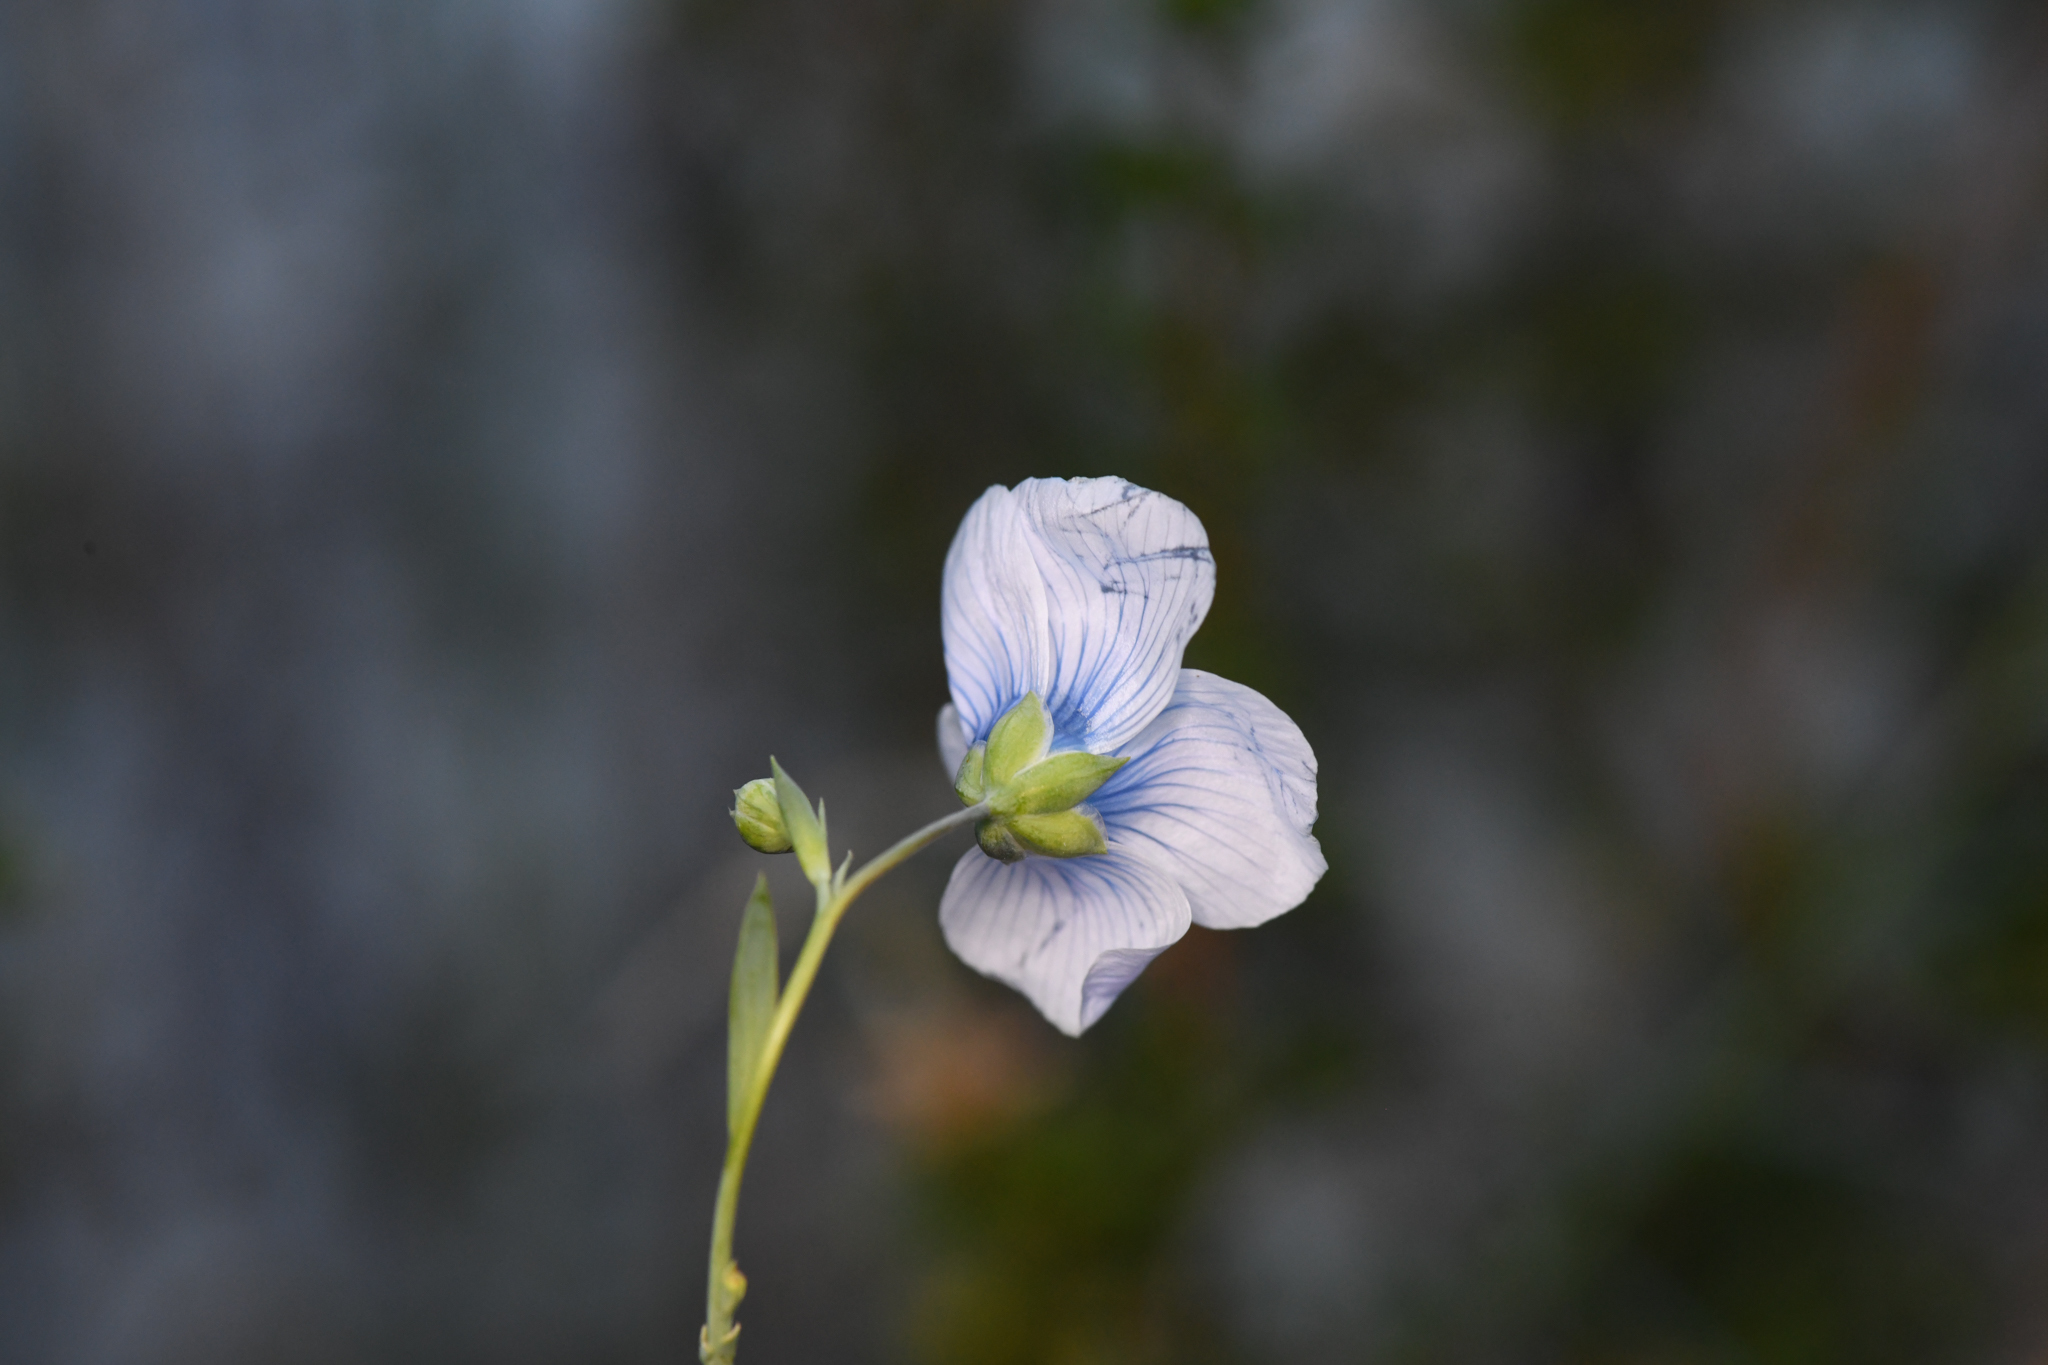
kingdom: Plantae
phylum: Tracheophyta
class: Magnoliopsida
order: Malpighiales
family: Linaceae
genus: Linum
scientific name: Linum lewisii
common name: Prairie flax
